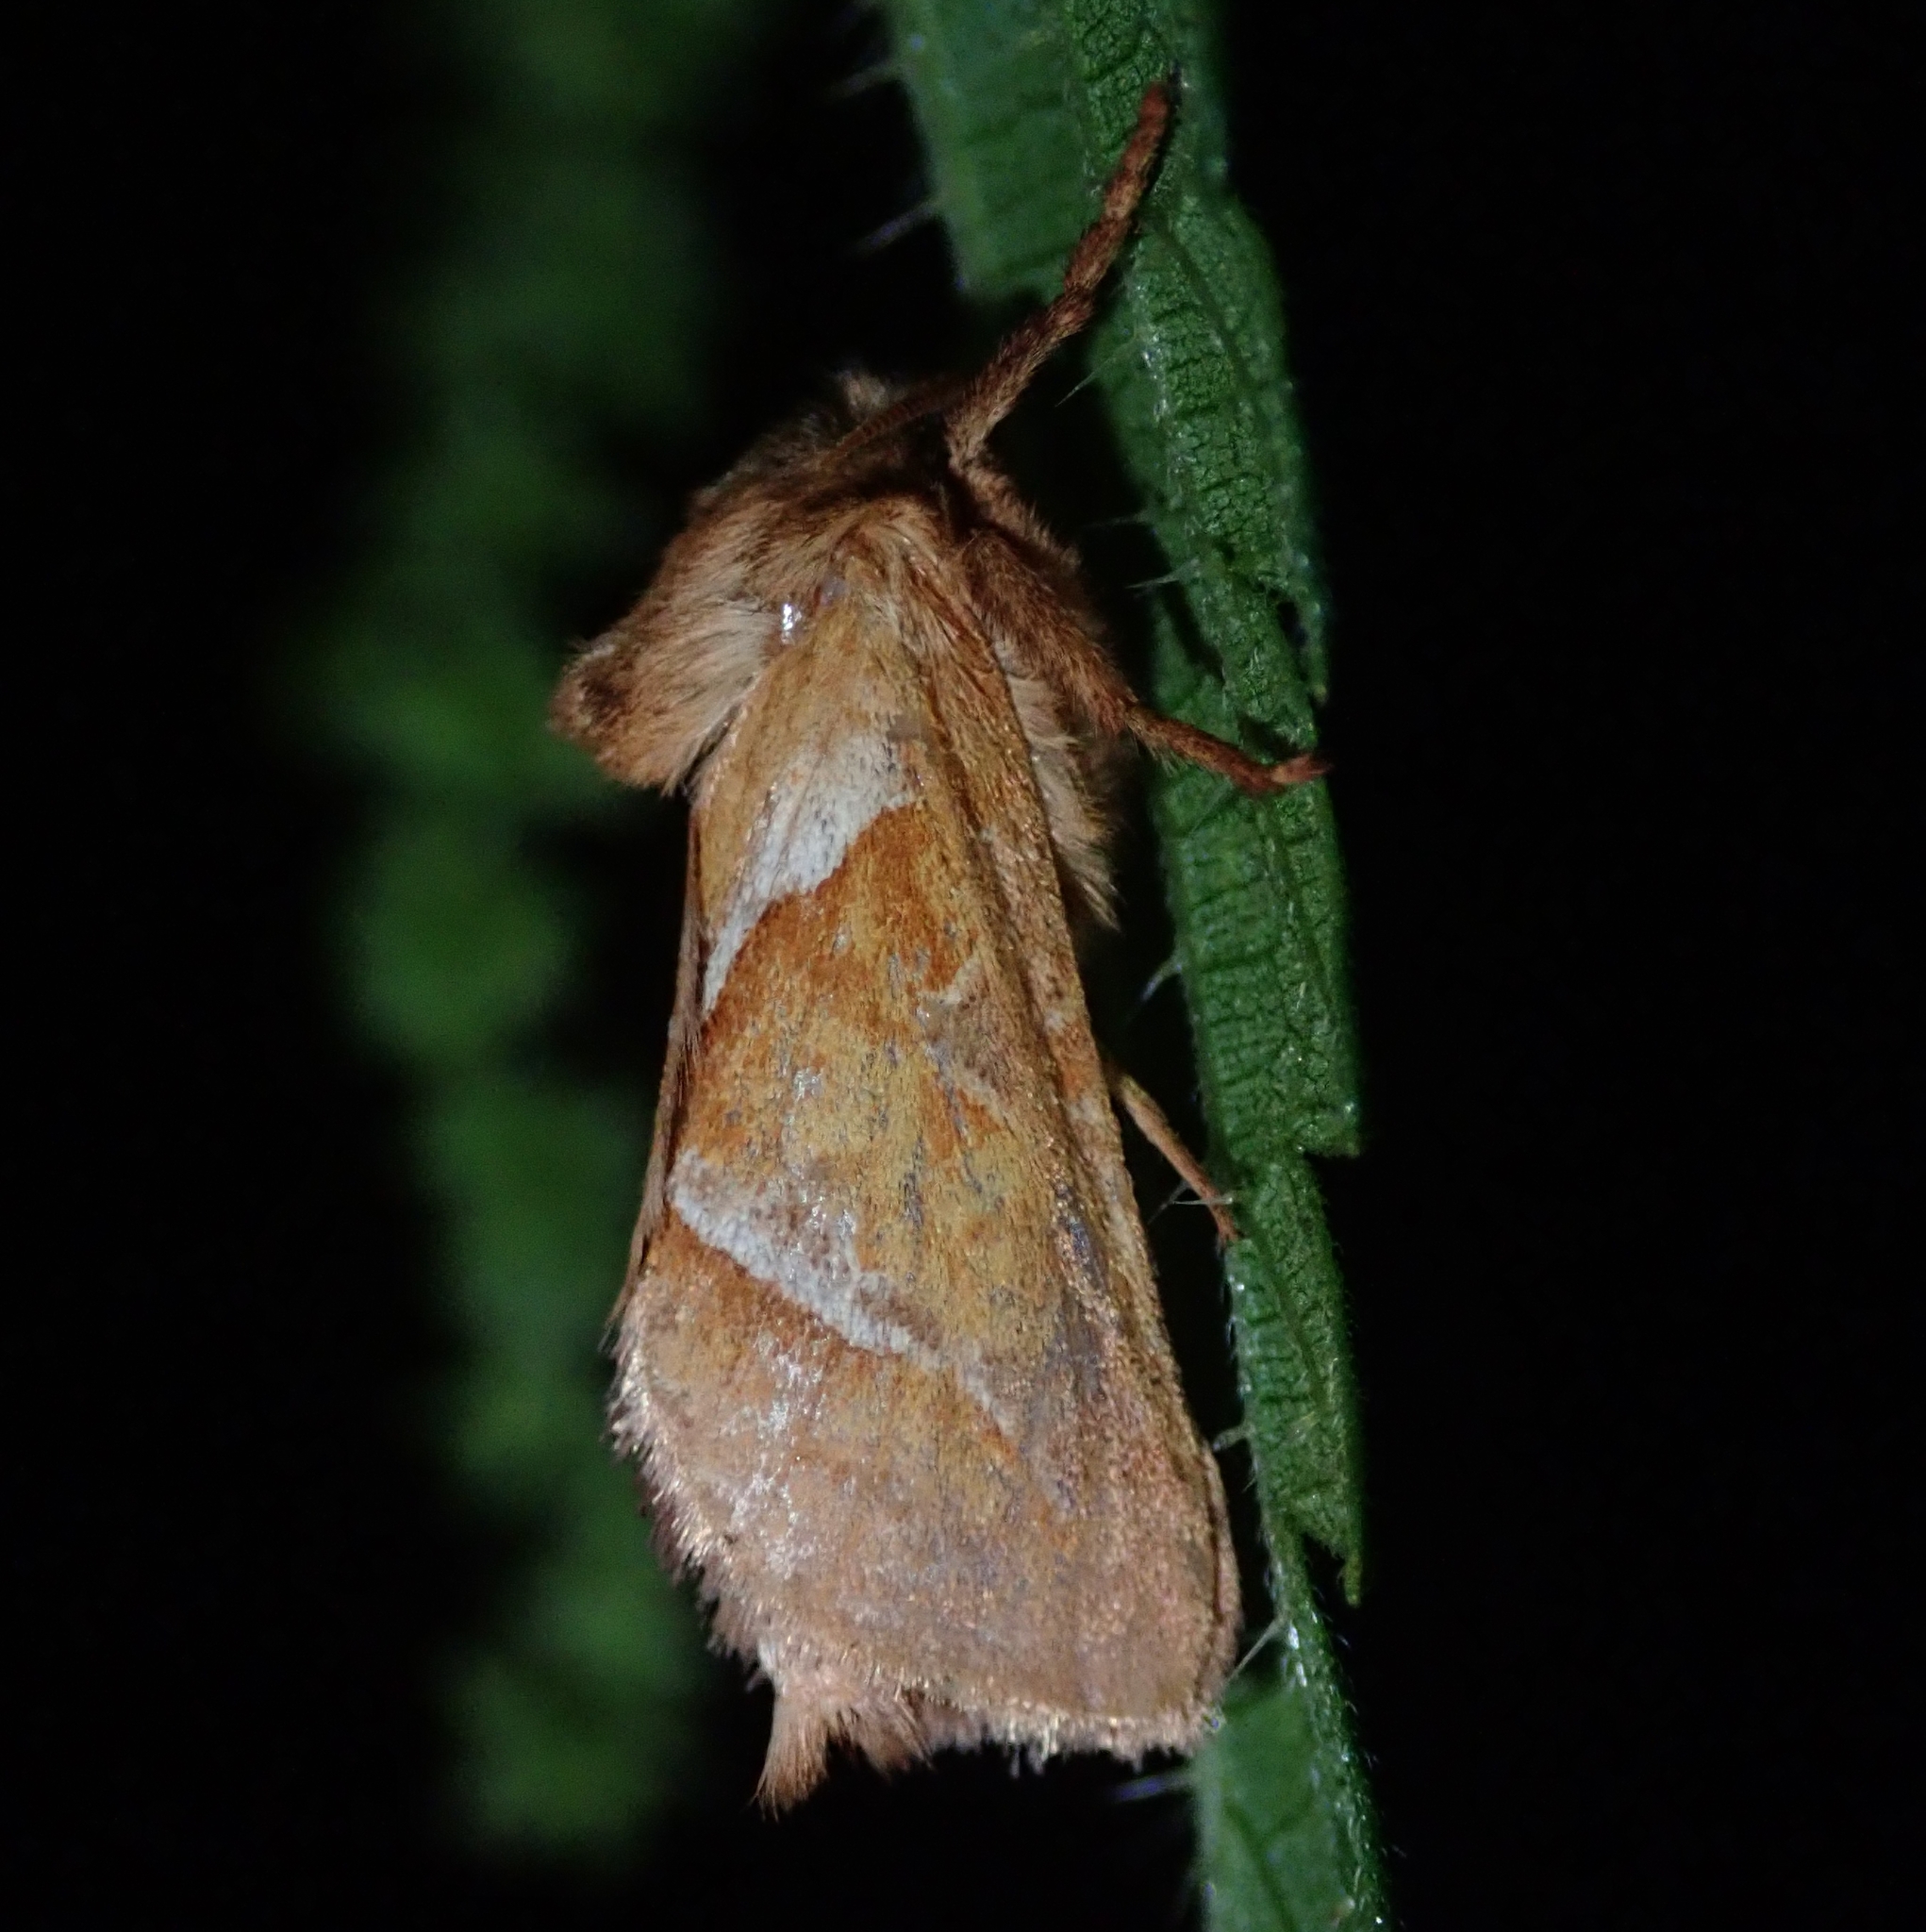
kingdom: Animalia
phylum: Arthropoda
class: Insecta
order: Lepidoptera
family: Hepialidae
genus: Triodia
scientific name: Triodia sylvina
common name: Orange swift
